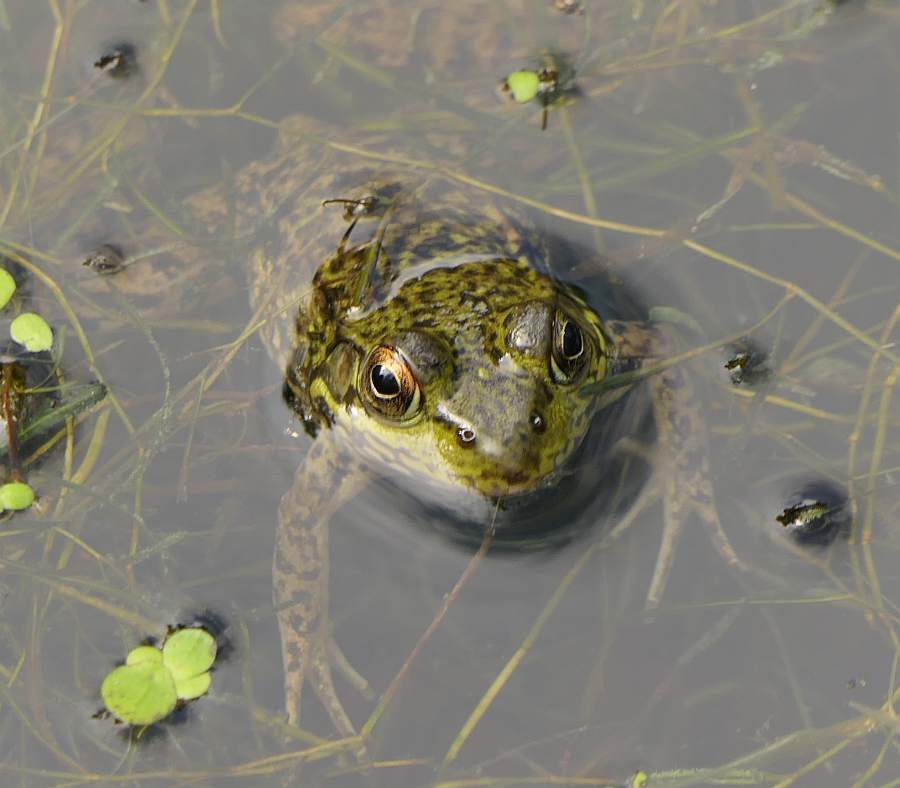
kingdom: Animalia
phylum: Chordata
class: Amphibia
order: Anura
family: Ranidae
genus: Lithobates
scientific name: Lithobates clamitans
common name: Green frog
